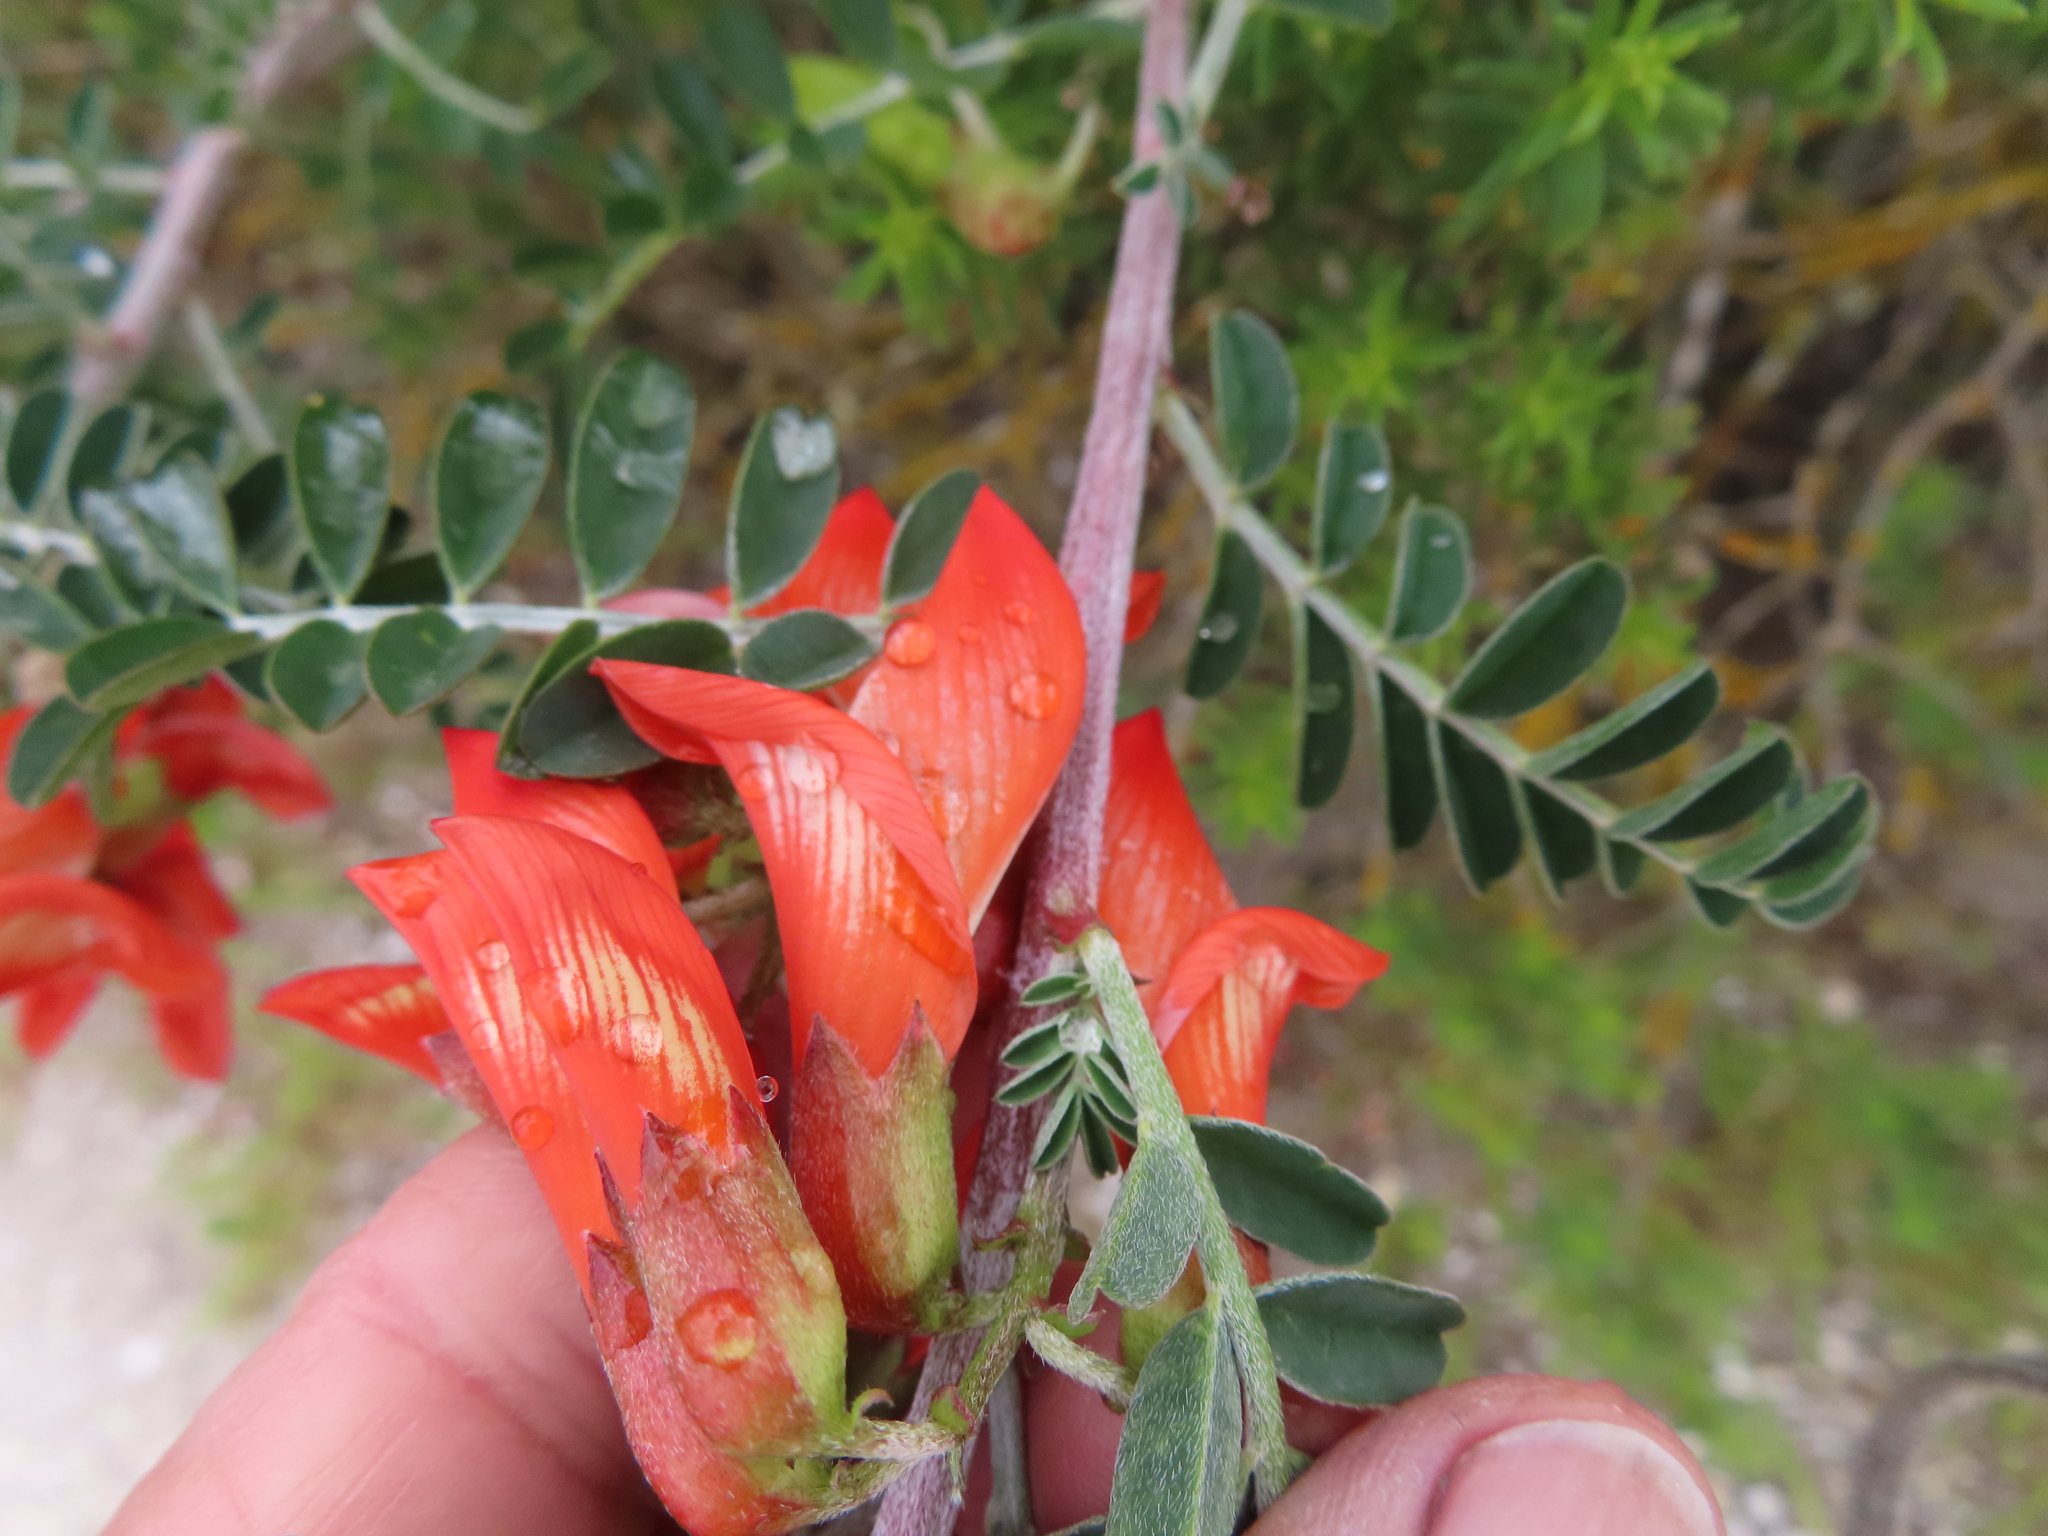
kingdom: Plantae
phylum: Tracheophyta
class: Magnoliopsida
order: Fabales
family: Fabaceae
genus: Lessertia
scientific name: Lessertia frutescens
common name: Balloon-pea
